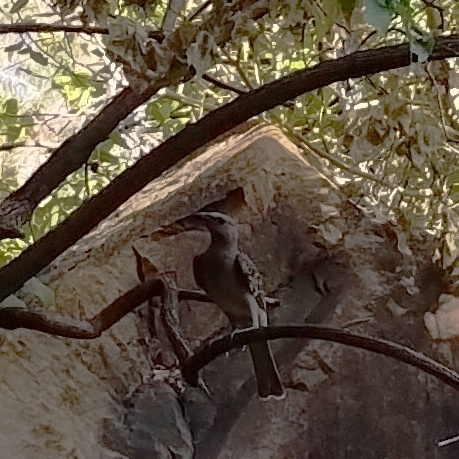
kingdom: Animalia
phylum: Chordata
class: Aves
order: Passeriformes
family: Ptilonorhynchidae
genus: Chlamydera
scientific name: Chlamydera nuchalis
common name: Great bowerbird
